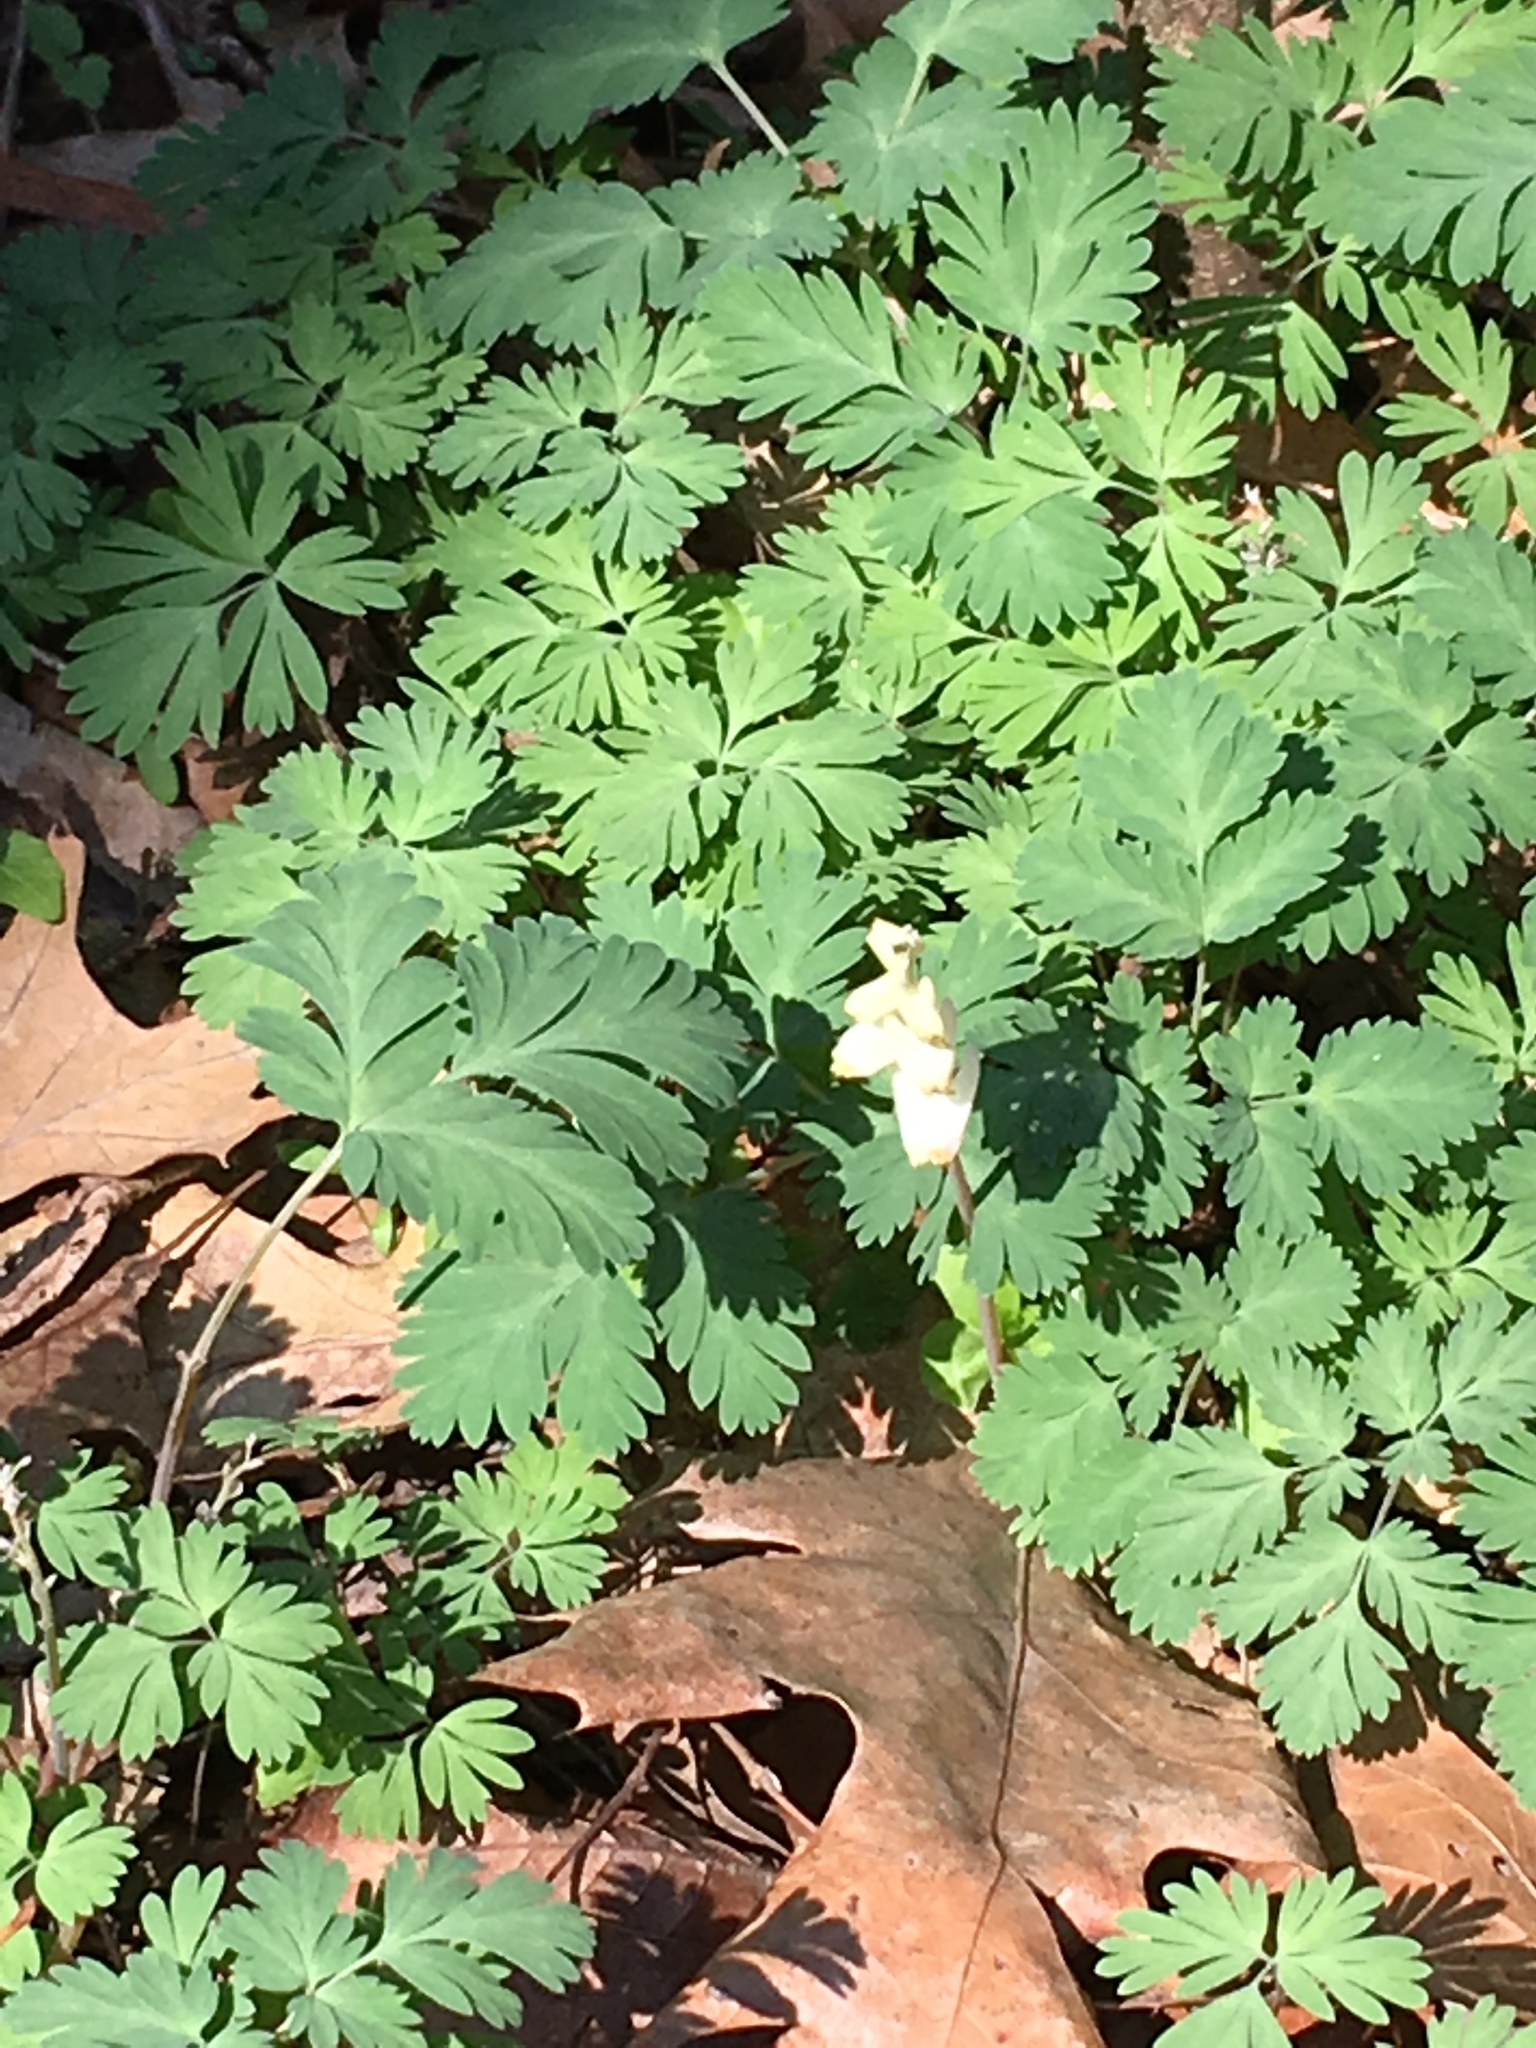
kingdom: Plantae
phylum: Tracheophyta
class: Magnoliopsida
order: Ranunculales
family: Papaveraceae
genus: Dicentra
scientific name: Dicentra cucullaria
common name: Dutchman's breeches
